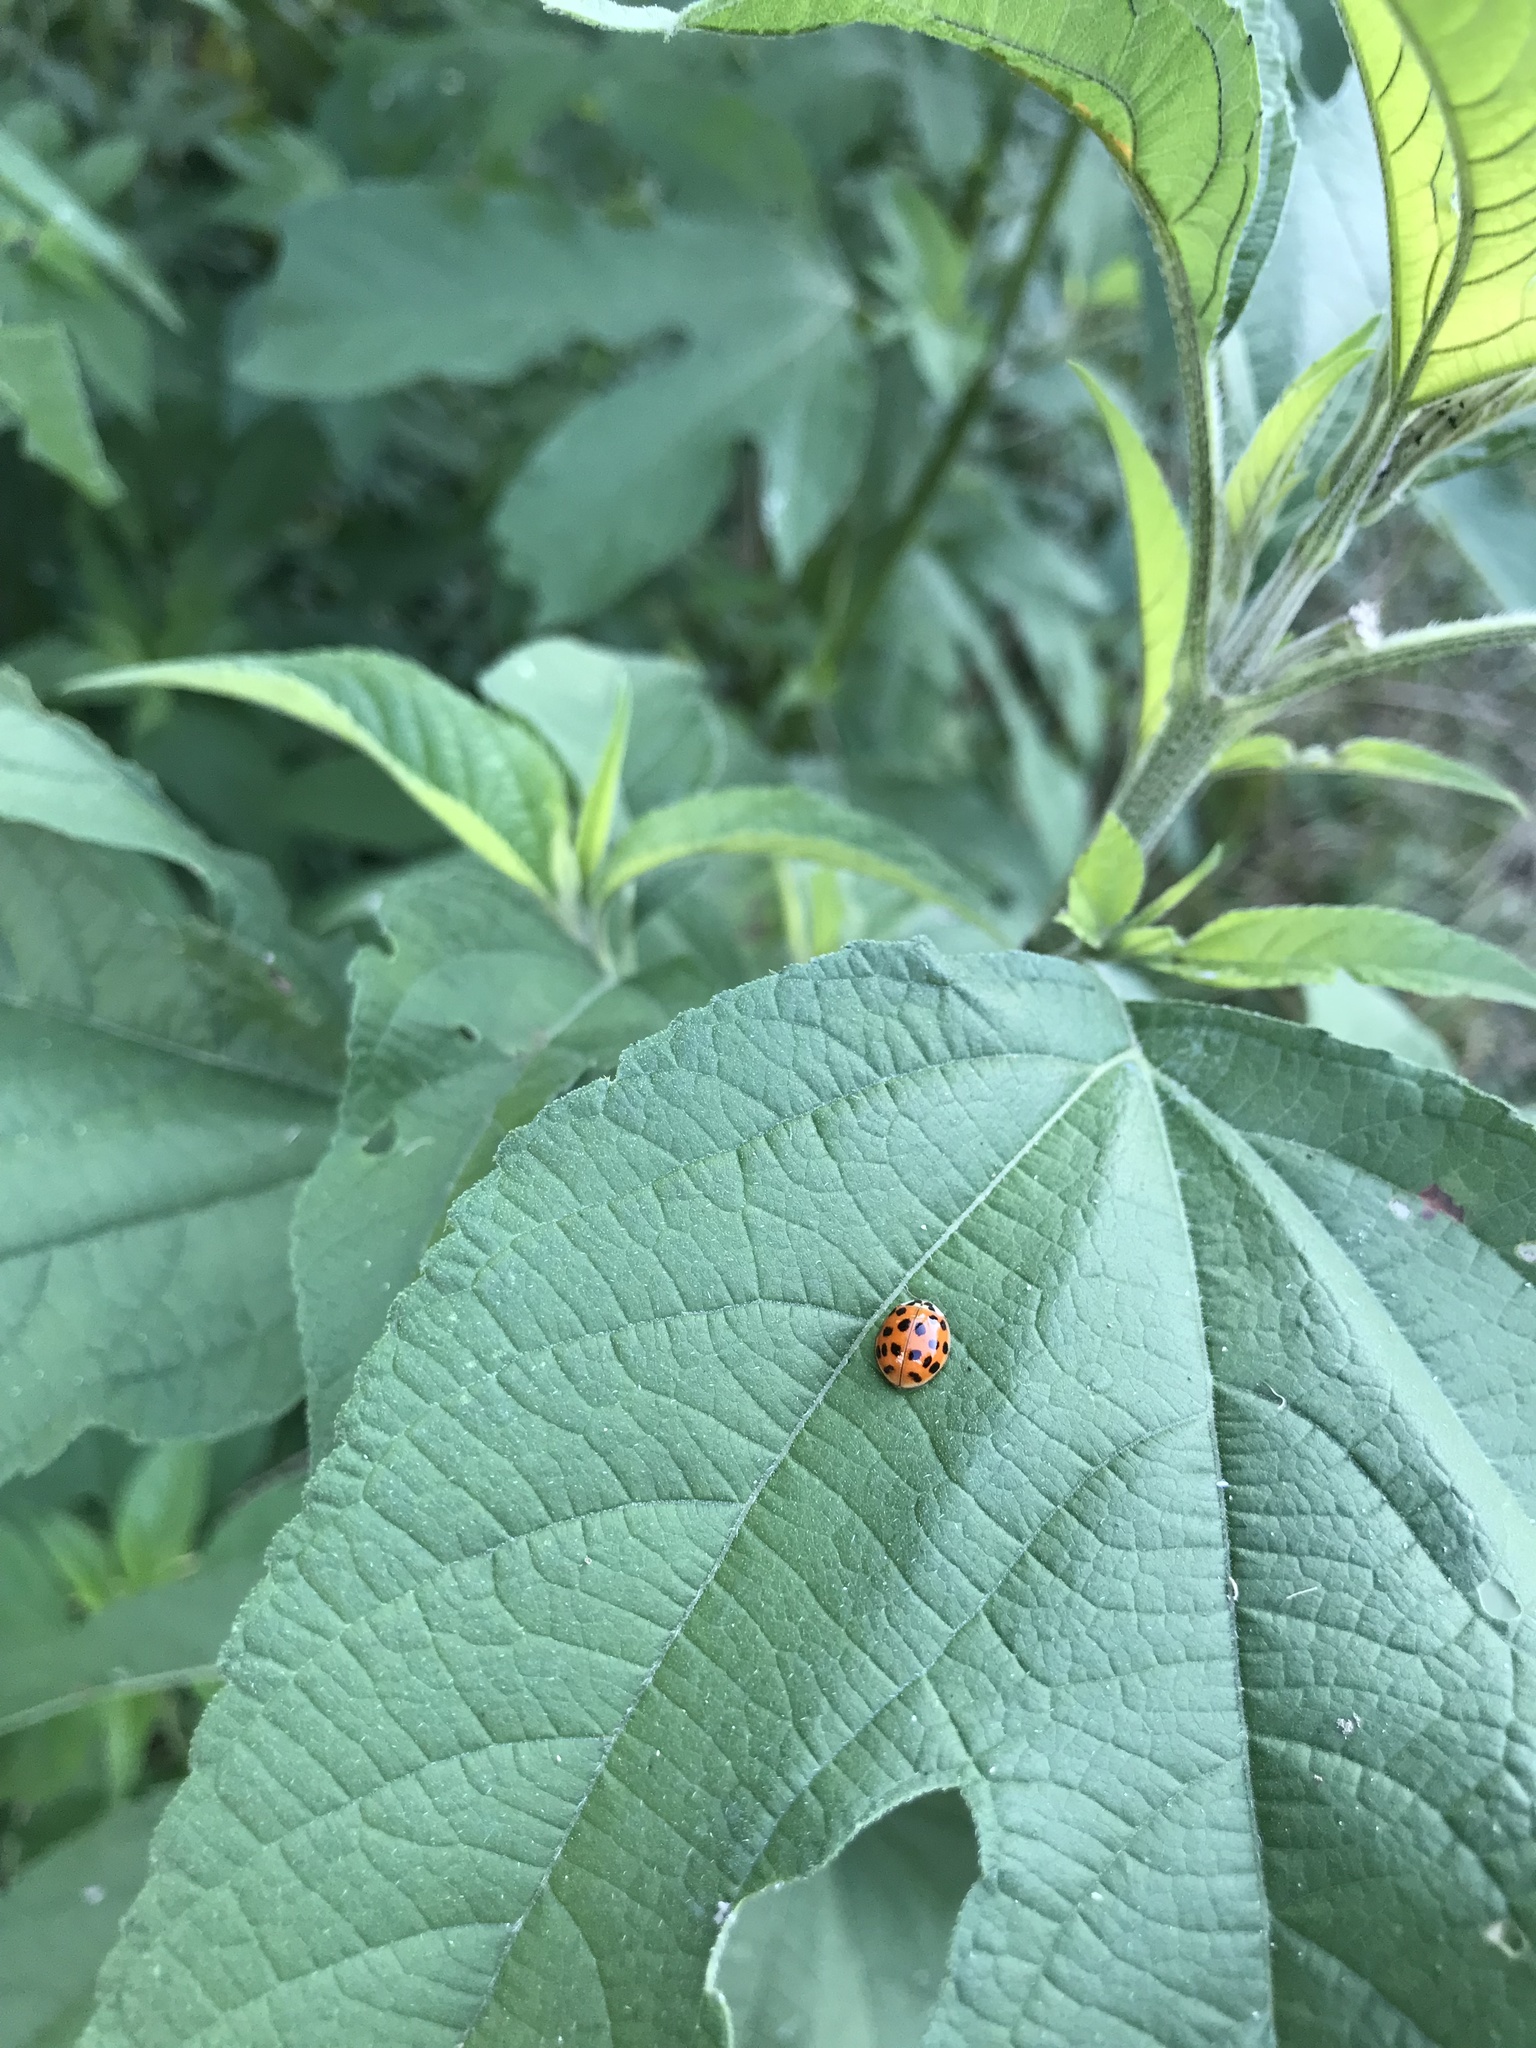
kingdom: Animalia
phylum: Arthropoda
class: Insecta
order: Coleoptera
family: Coccinellidae
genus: Harmonia
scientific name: Harmonia axyridis
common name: Harlequin ladybird
